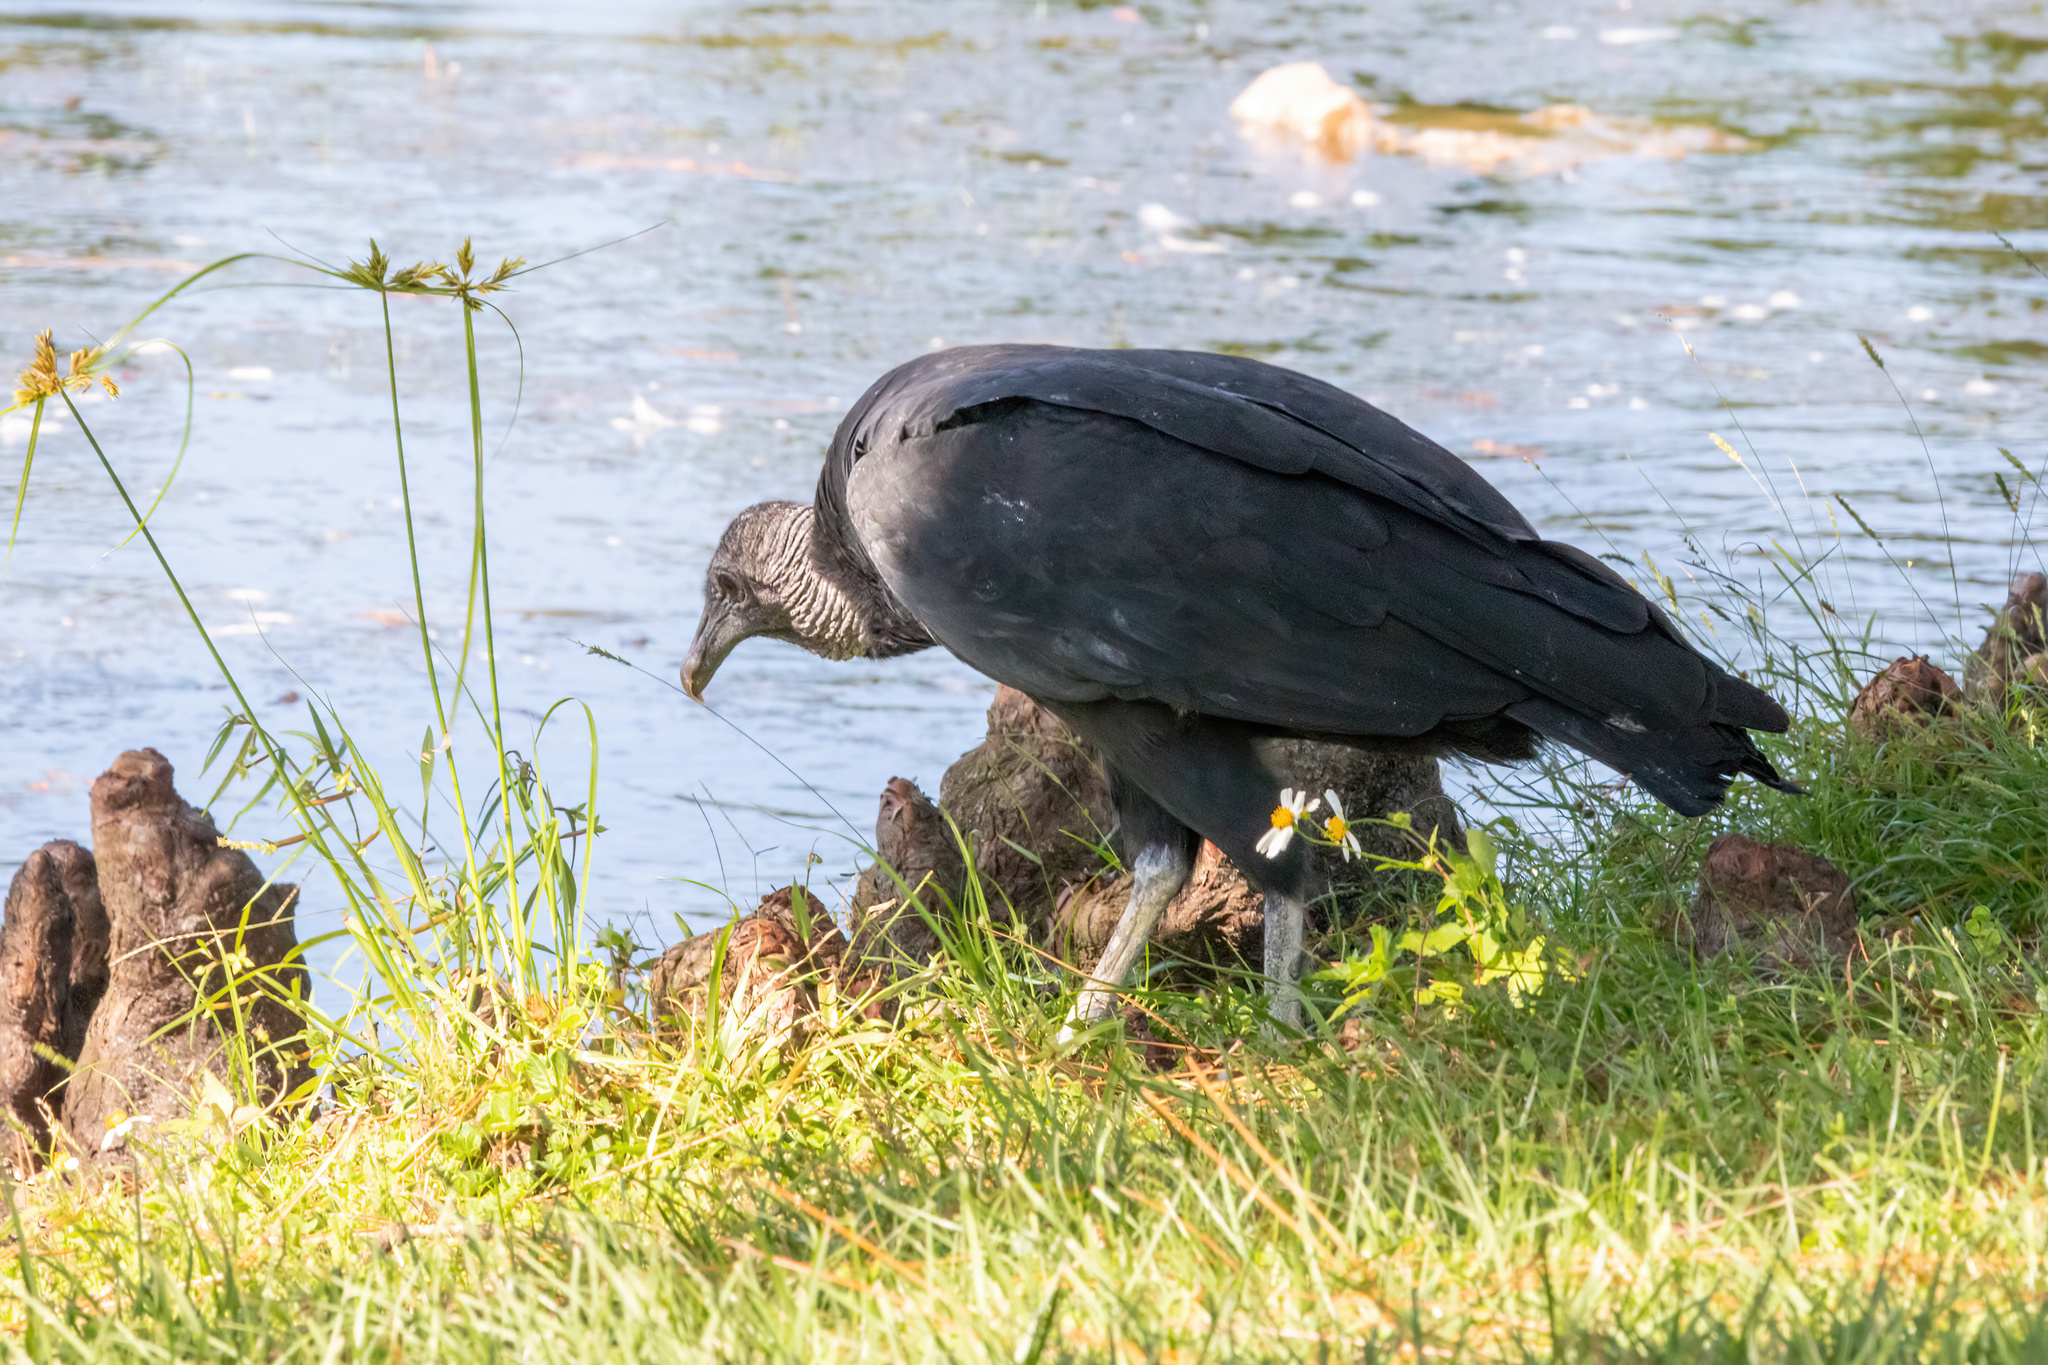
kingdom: Animalia
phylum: Chordata
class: Aves
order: Accipitriformes
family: Cathartidae
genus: Coragyps
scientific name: Coragyps atratus
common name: Black vulture
